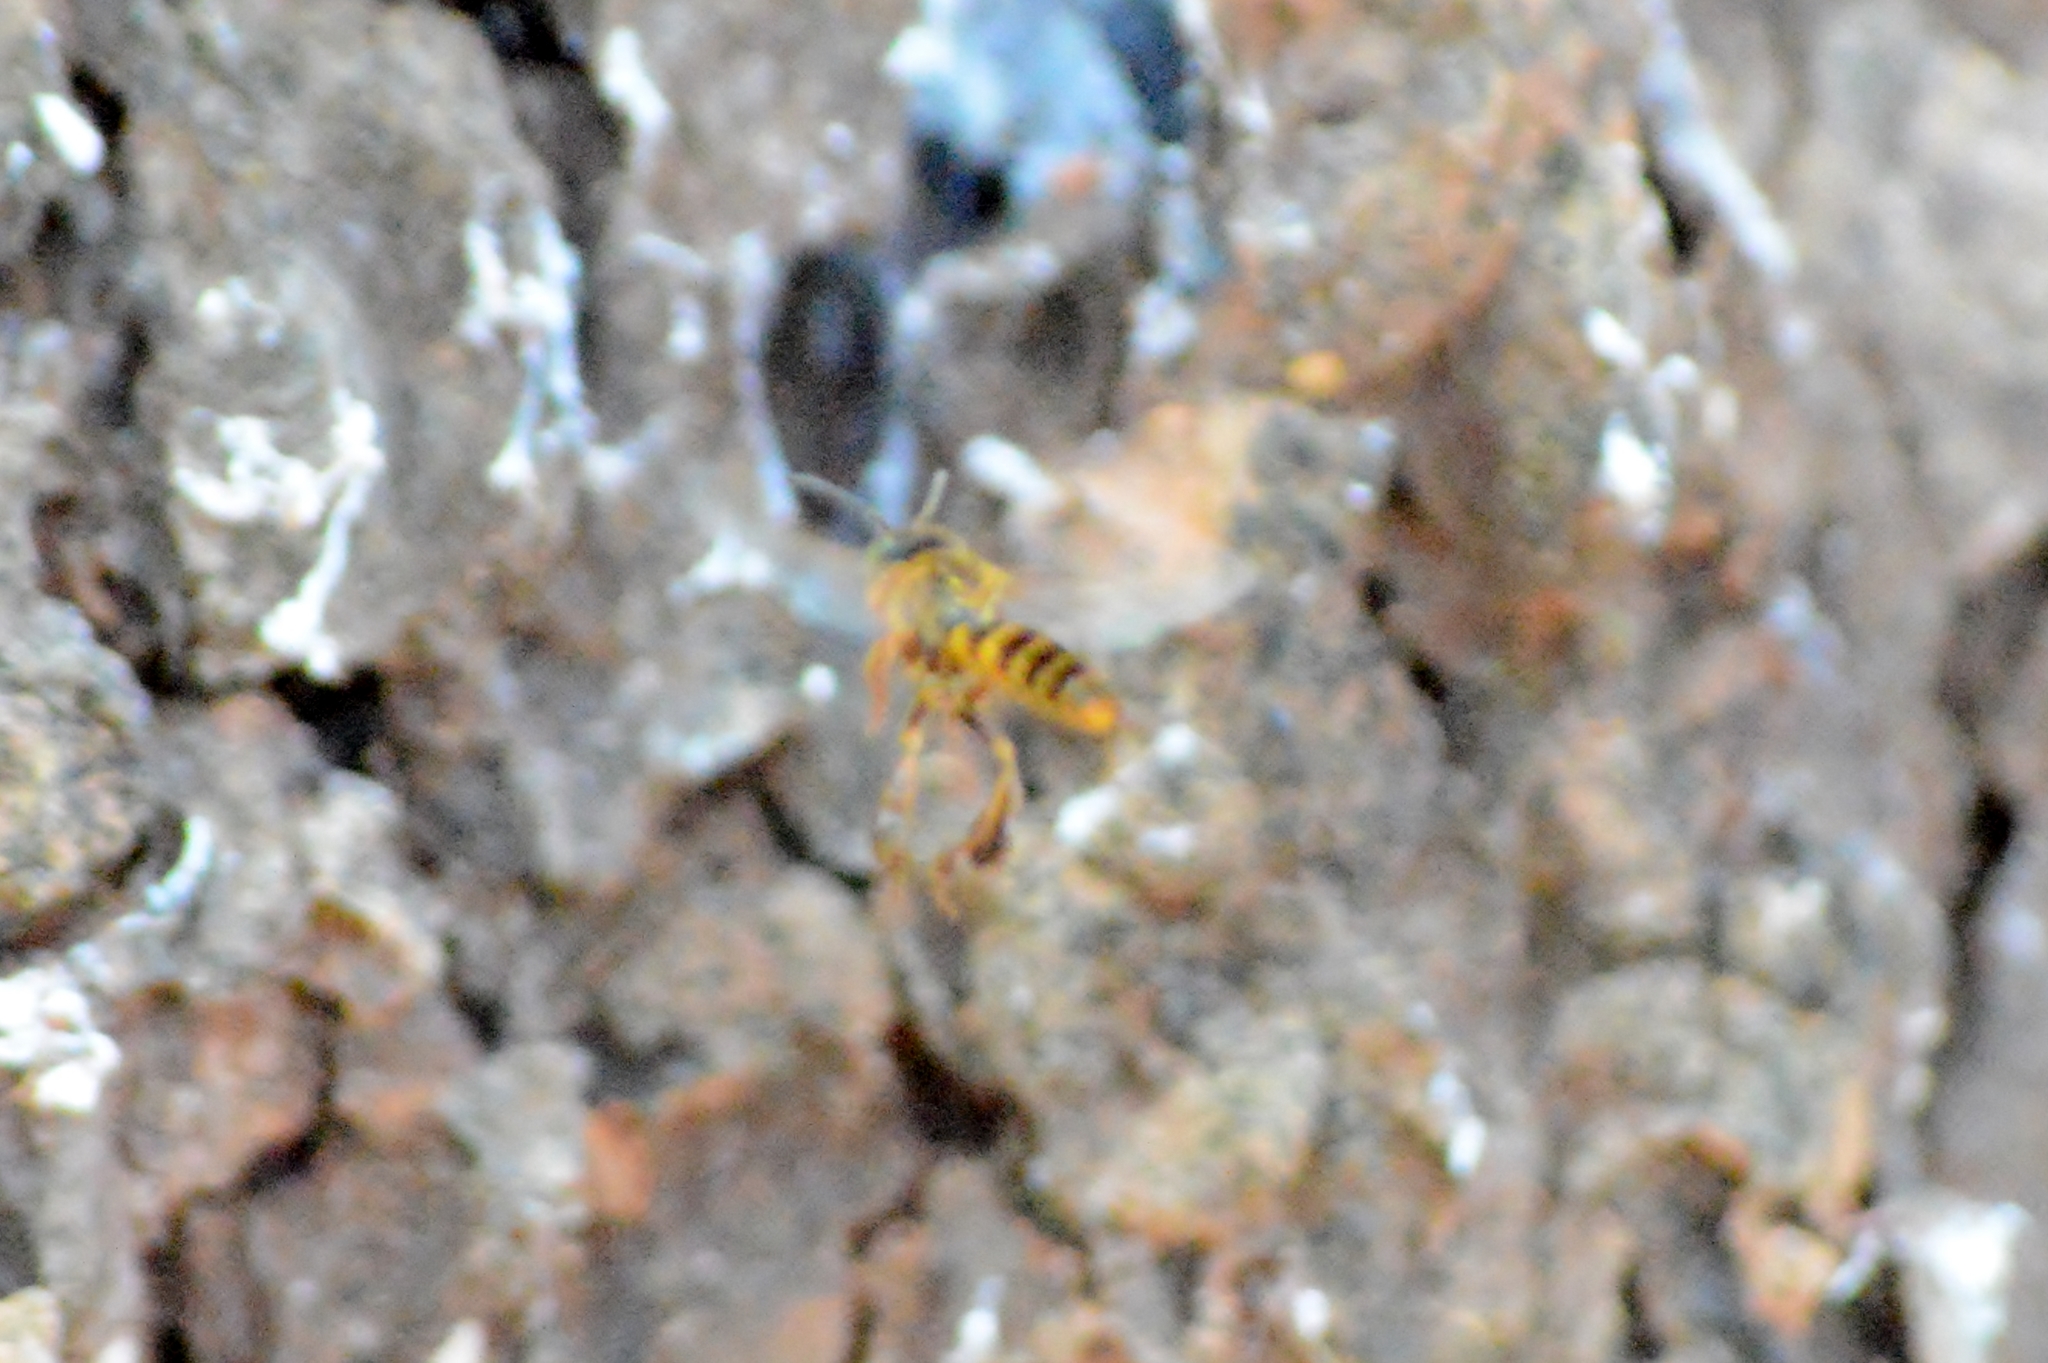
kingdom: Animalia
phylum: Arthropoda
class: Insecta
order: Hymenoptera
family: Apidae
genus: Tetragona
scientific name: Tetragona clavipes
